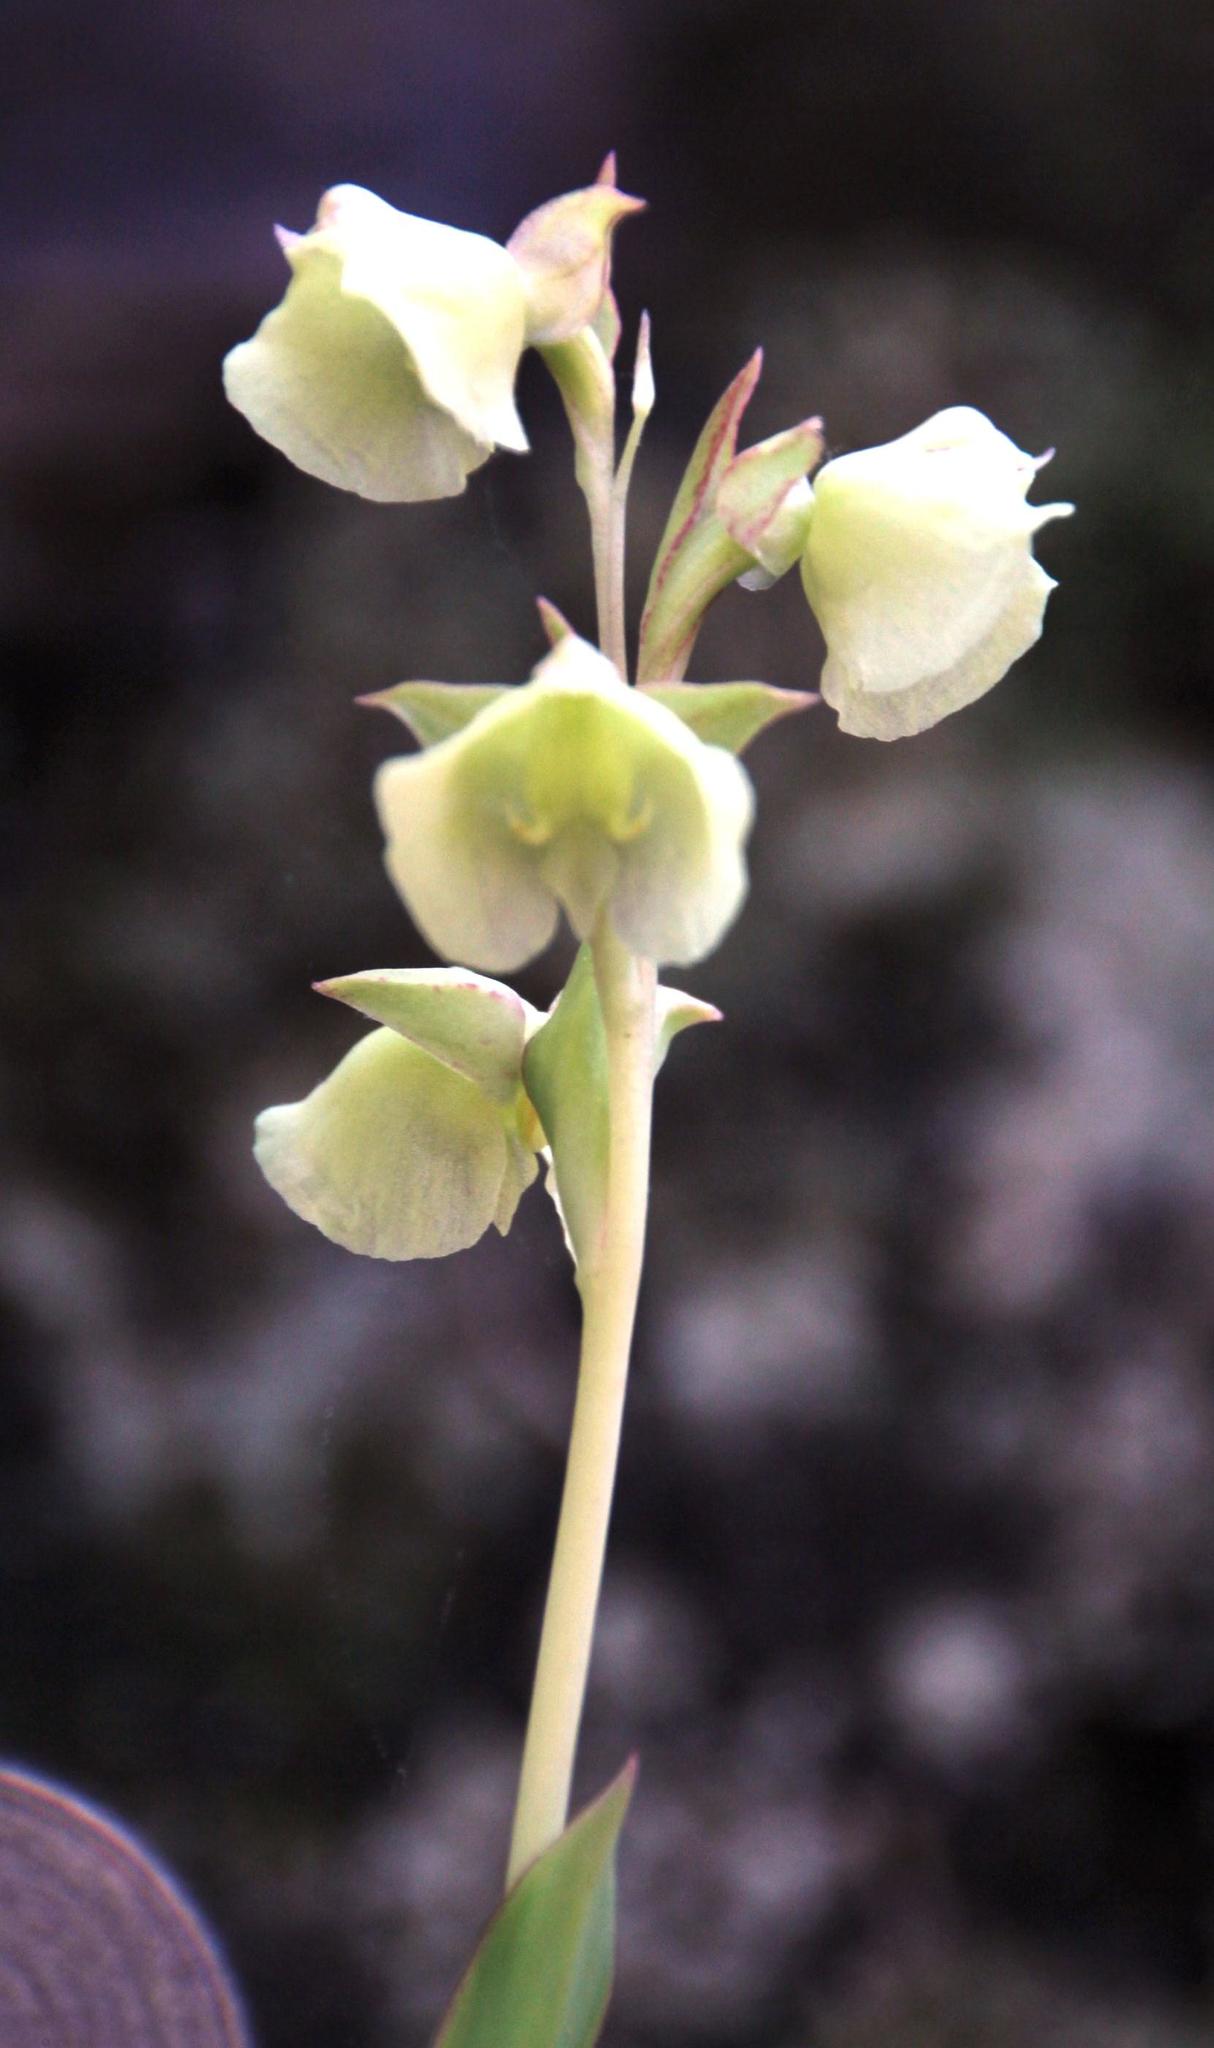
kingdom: Plantae
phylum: Tracheophyta
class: Liliopsida
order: Asparagales
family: Orchidaceae
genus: Pterygodium
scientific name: Pterygodium catholicum
